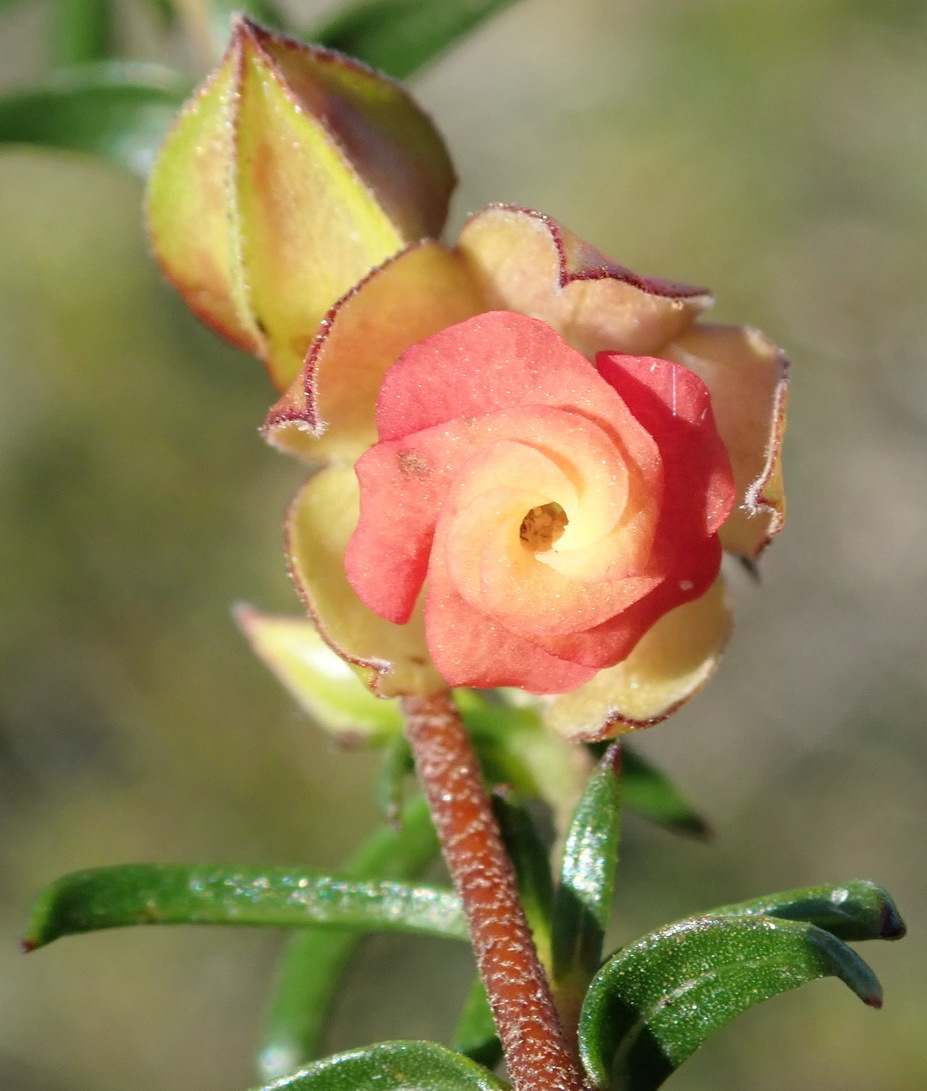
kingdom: Plantae
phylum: Tracheophyta
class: Magnoliopsida
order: Malvales
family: Malvaceae
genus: Hermannia
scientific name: Hermannia angularis
